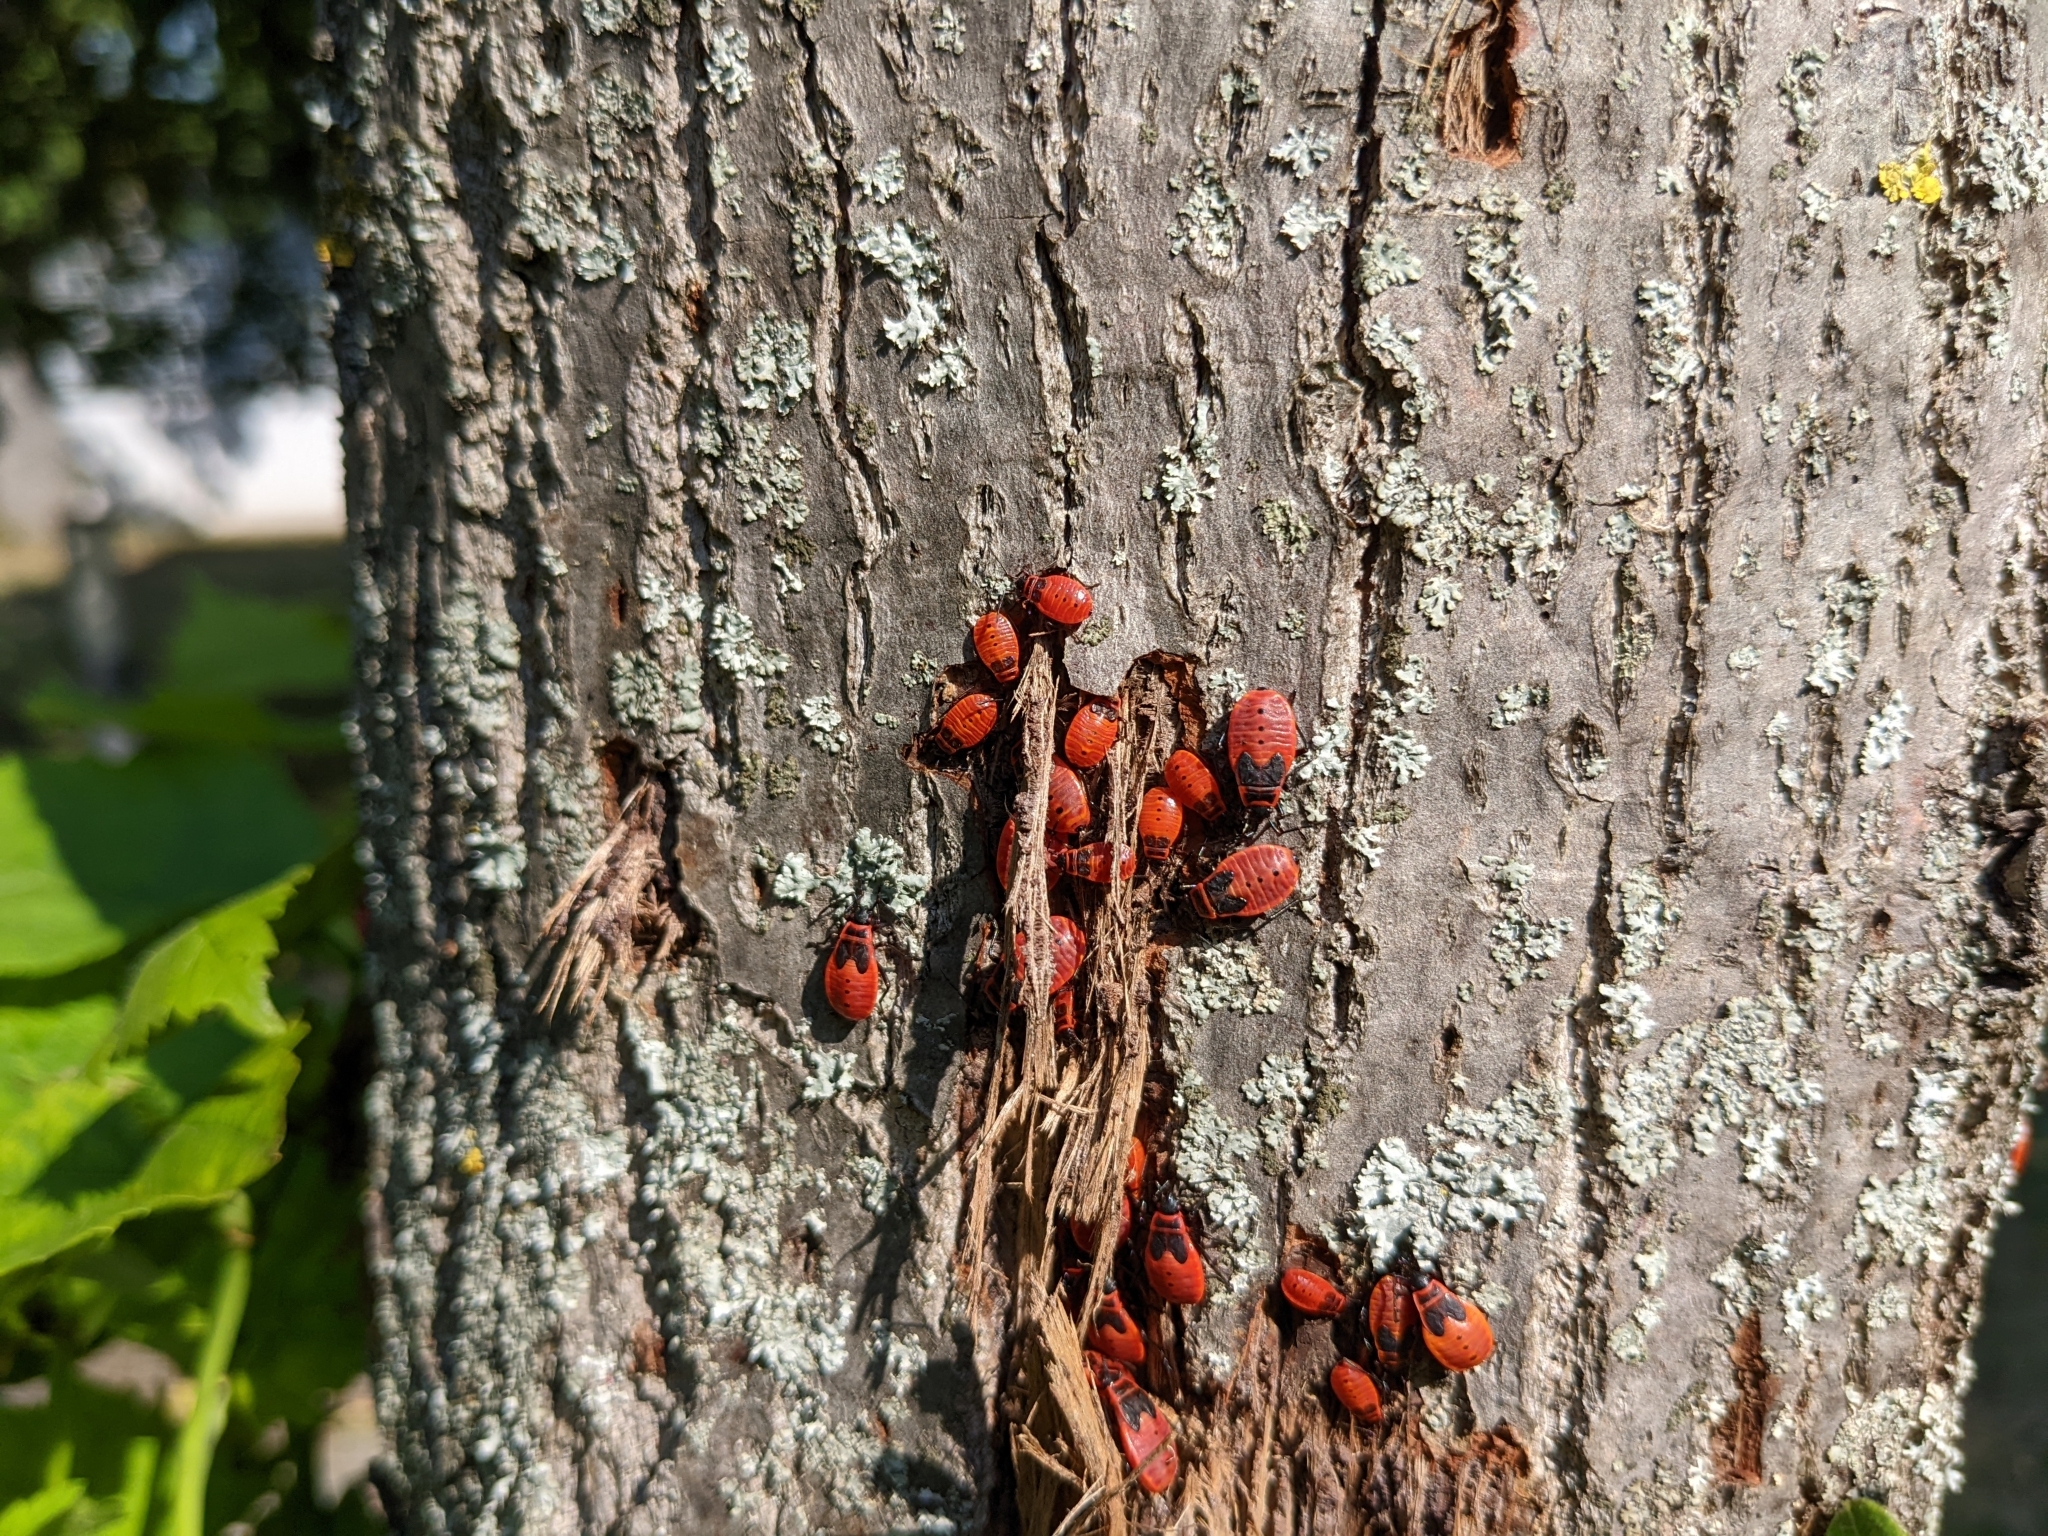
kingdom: Animalia
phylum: Arthropoda
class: Insecta
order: Hemiptera
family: Pyrrhocoridae
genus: Pyrrhocoris
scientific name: Pyrrhocoris apterus
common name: Firebug
